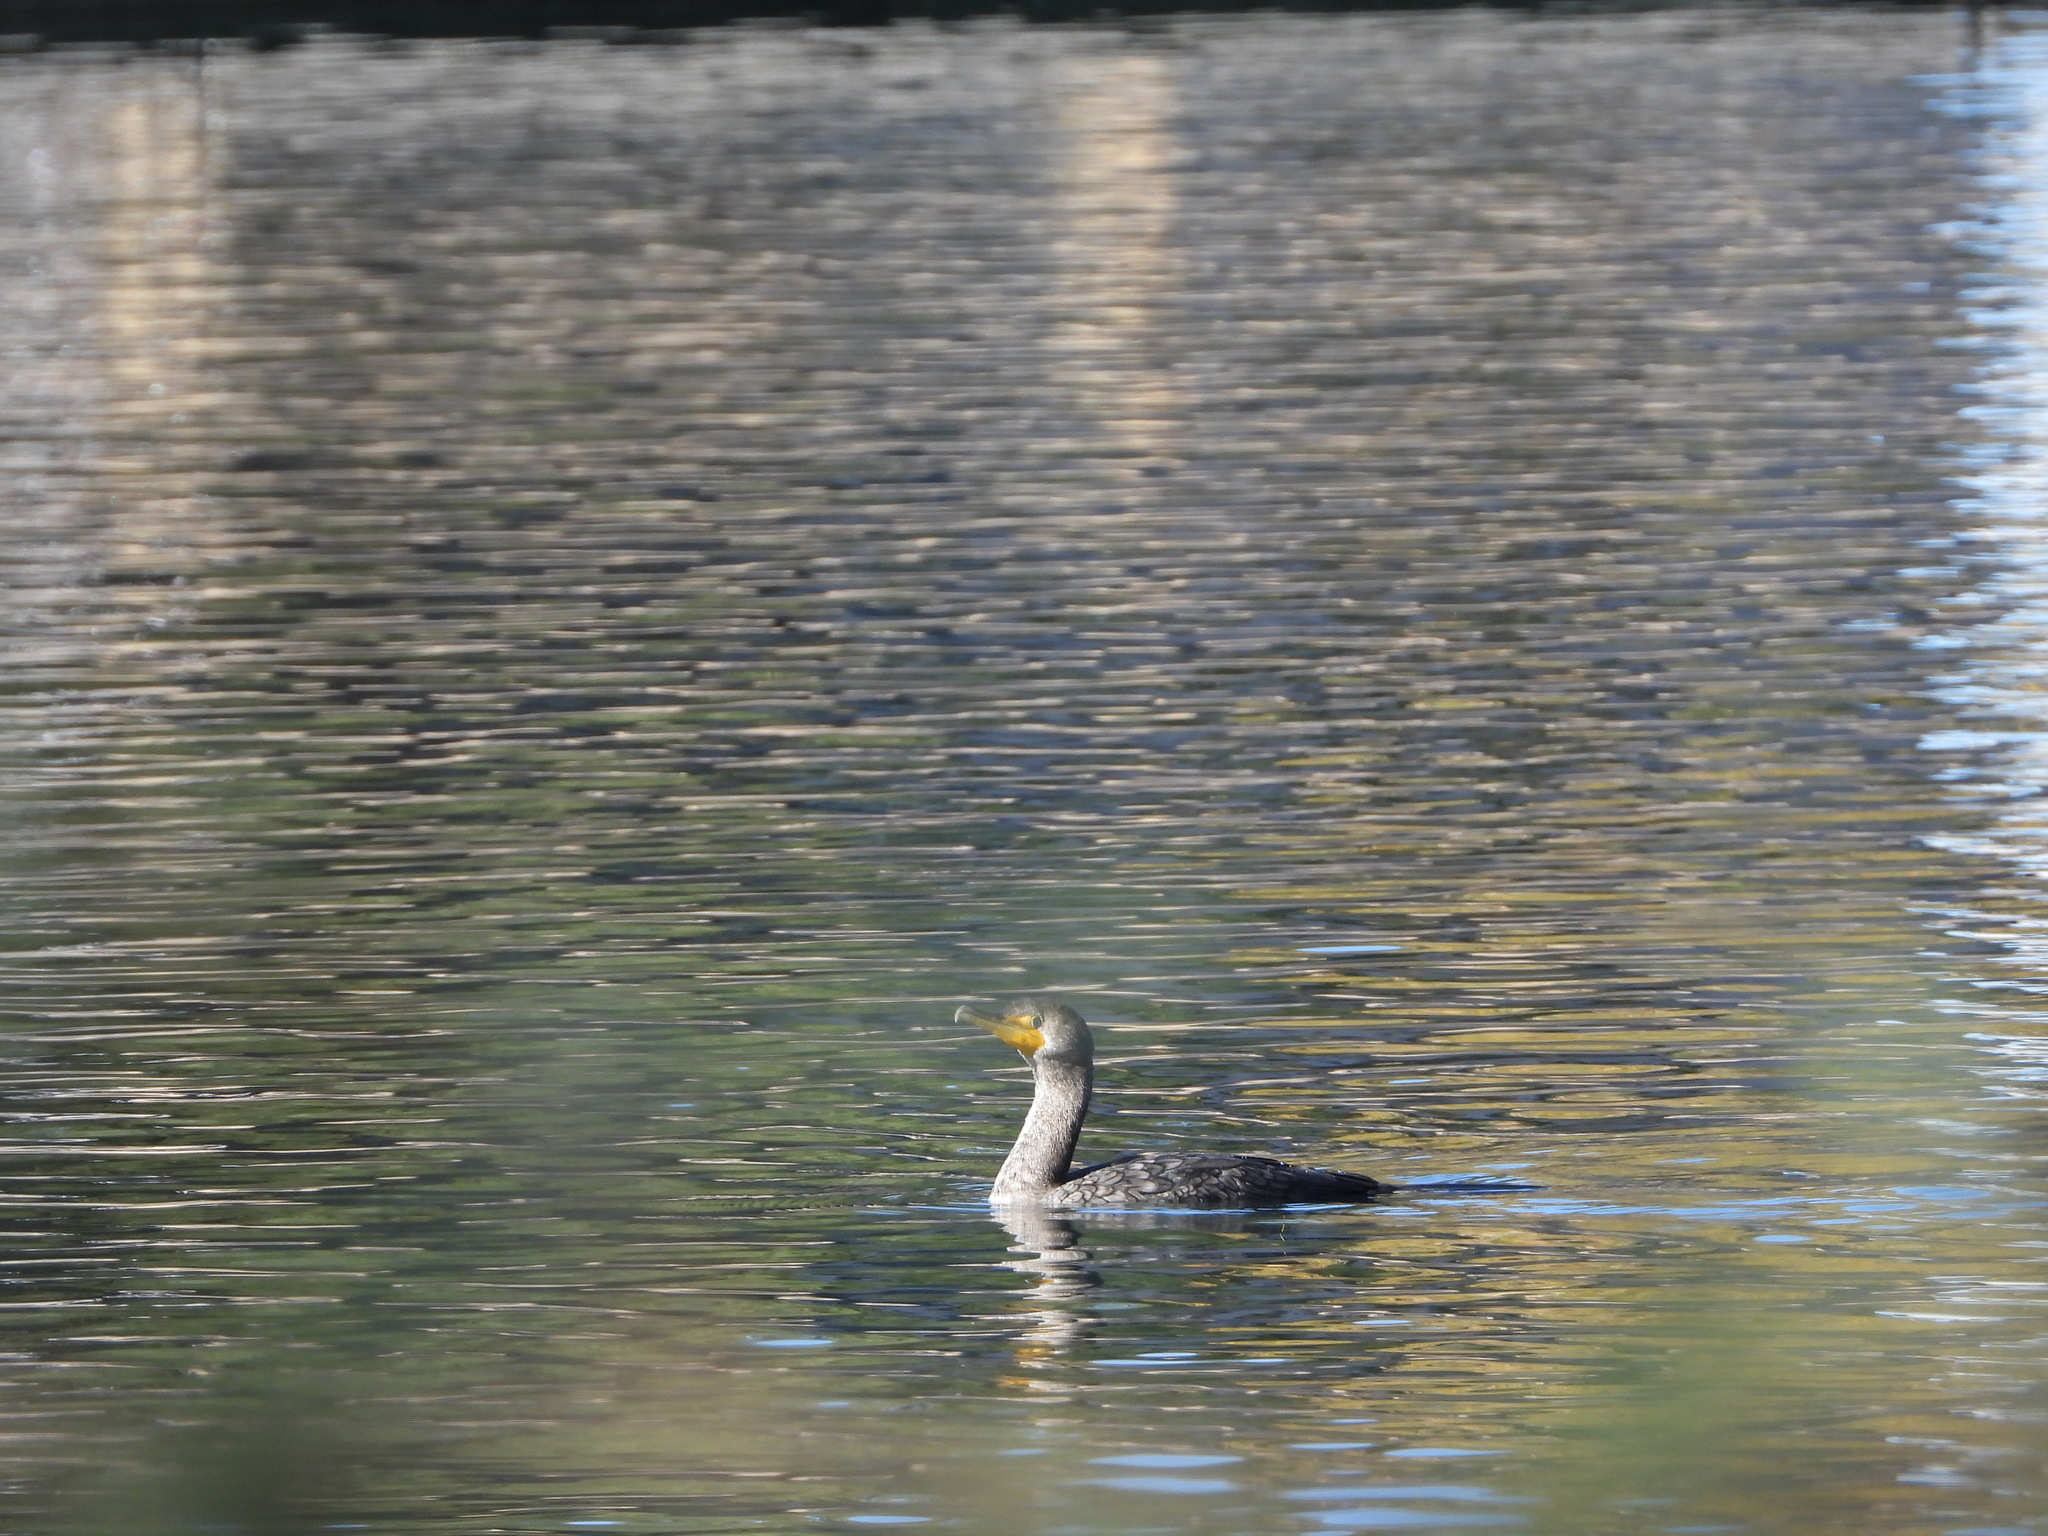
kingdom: Animalia
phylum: Chordata
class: Aves
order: Suliformes
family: Phalacrocoracidae
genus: Phalacrocorax
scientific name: Phalacrocorax auritus
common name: Double-crested cormorant
